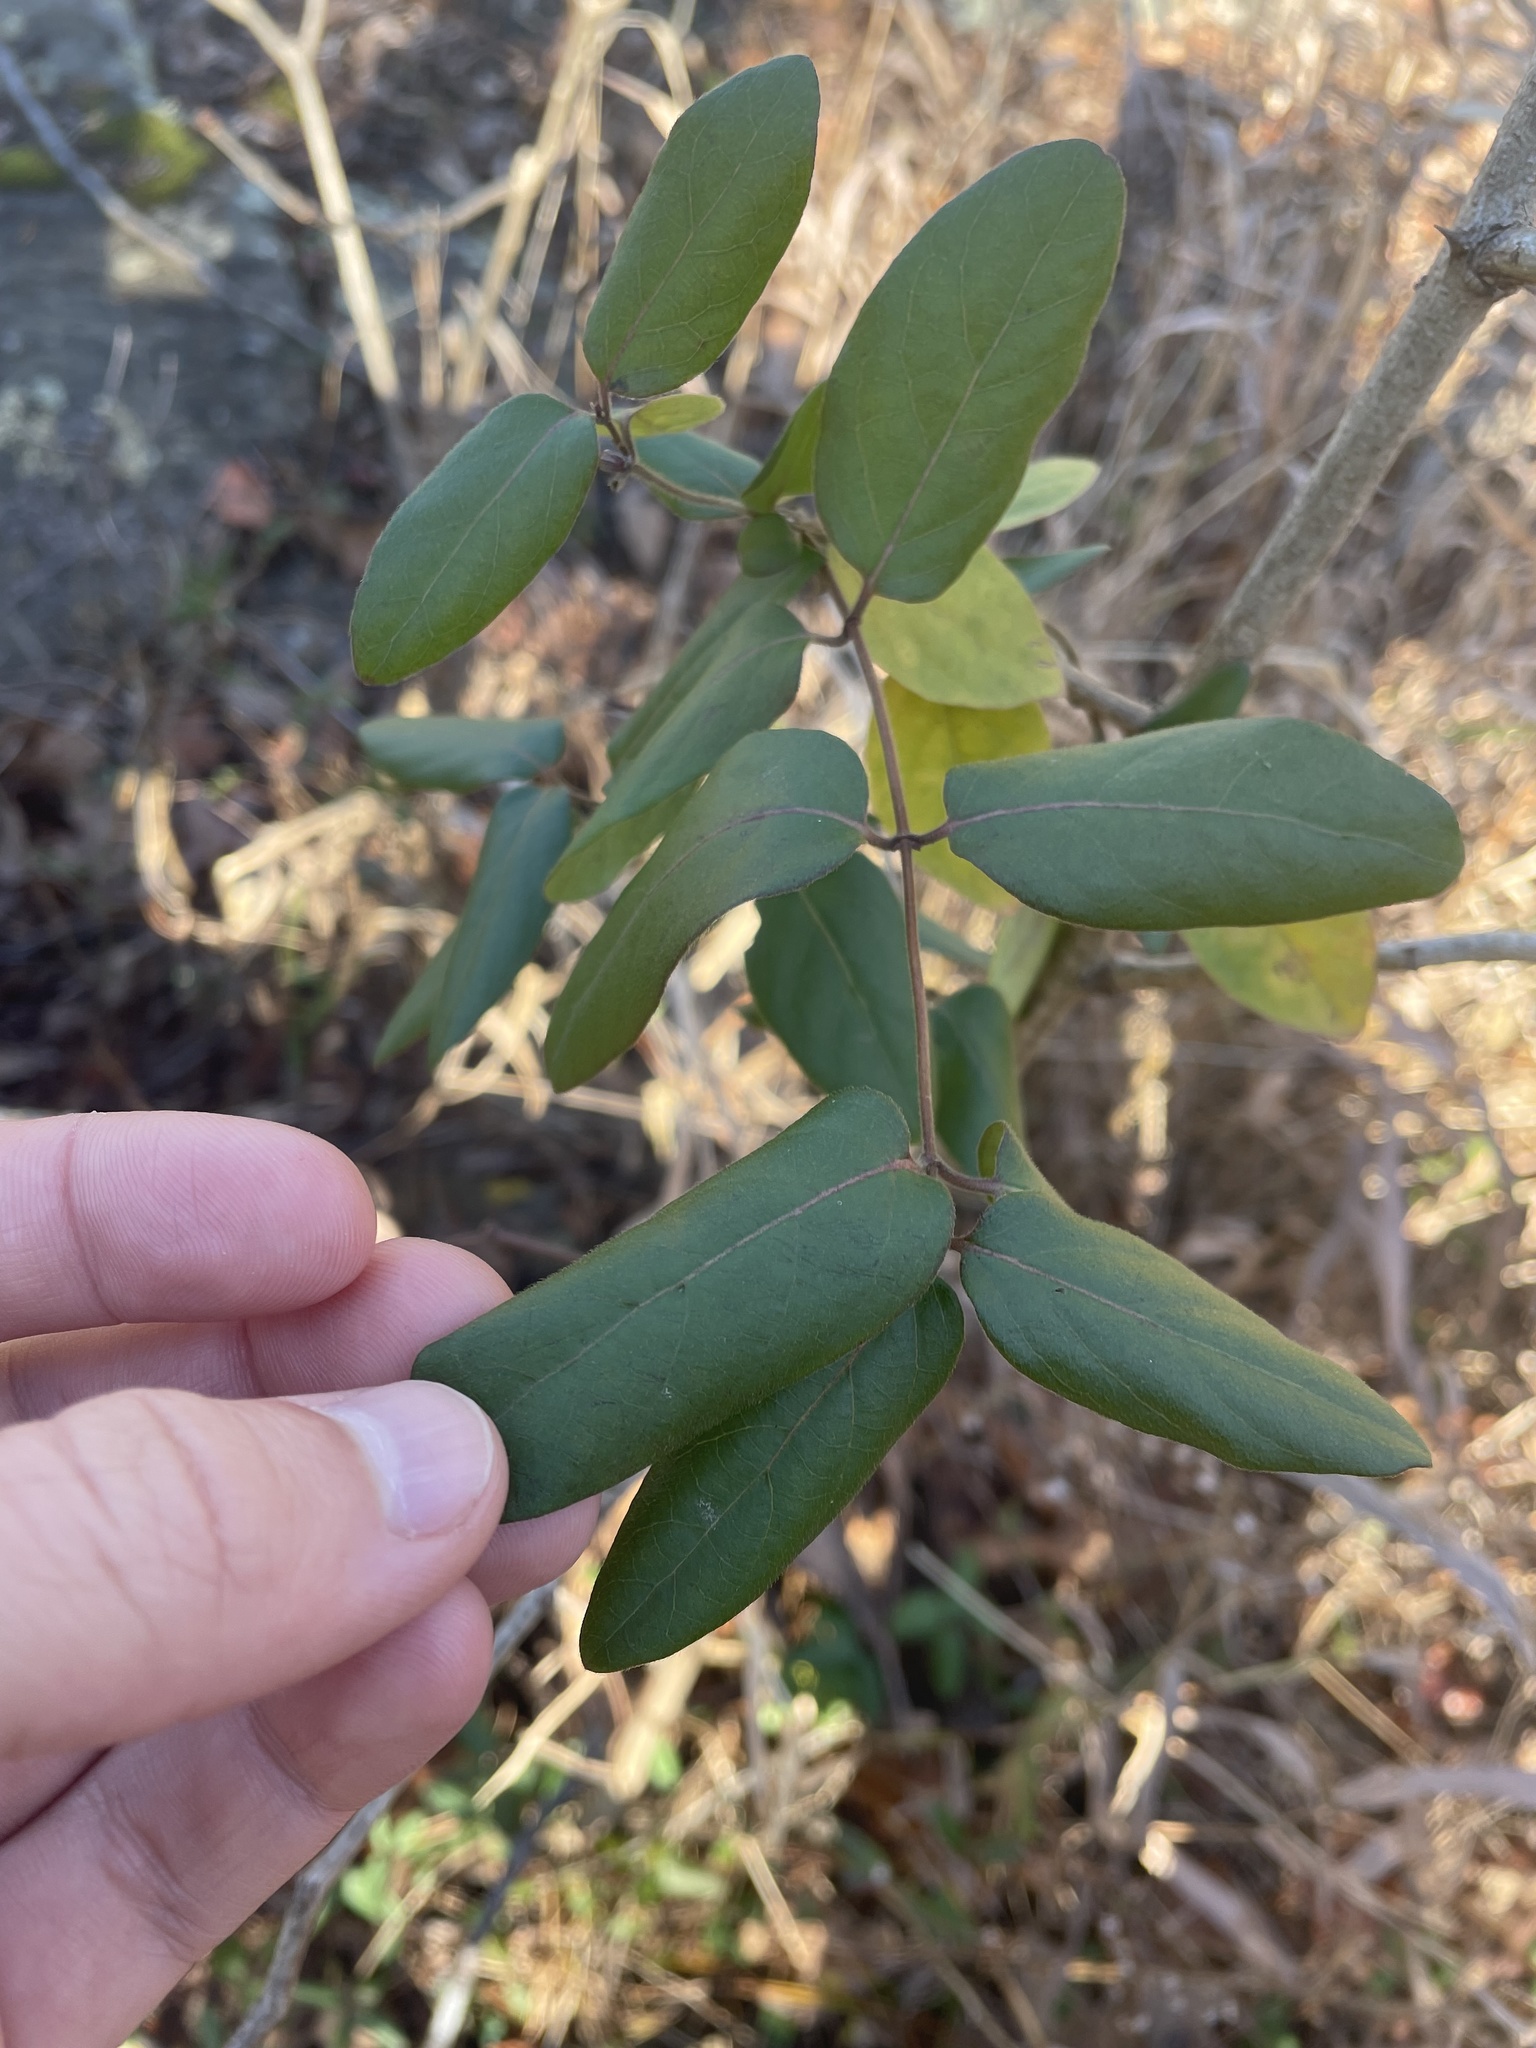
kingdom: Plantae
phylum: Tracheophyta
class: Magnoliopsida
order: Dipsacales
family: Caprifoliaceae
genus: Lonicera
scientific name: Lonicera japonica
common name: Japanese honeysuckle
